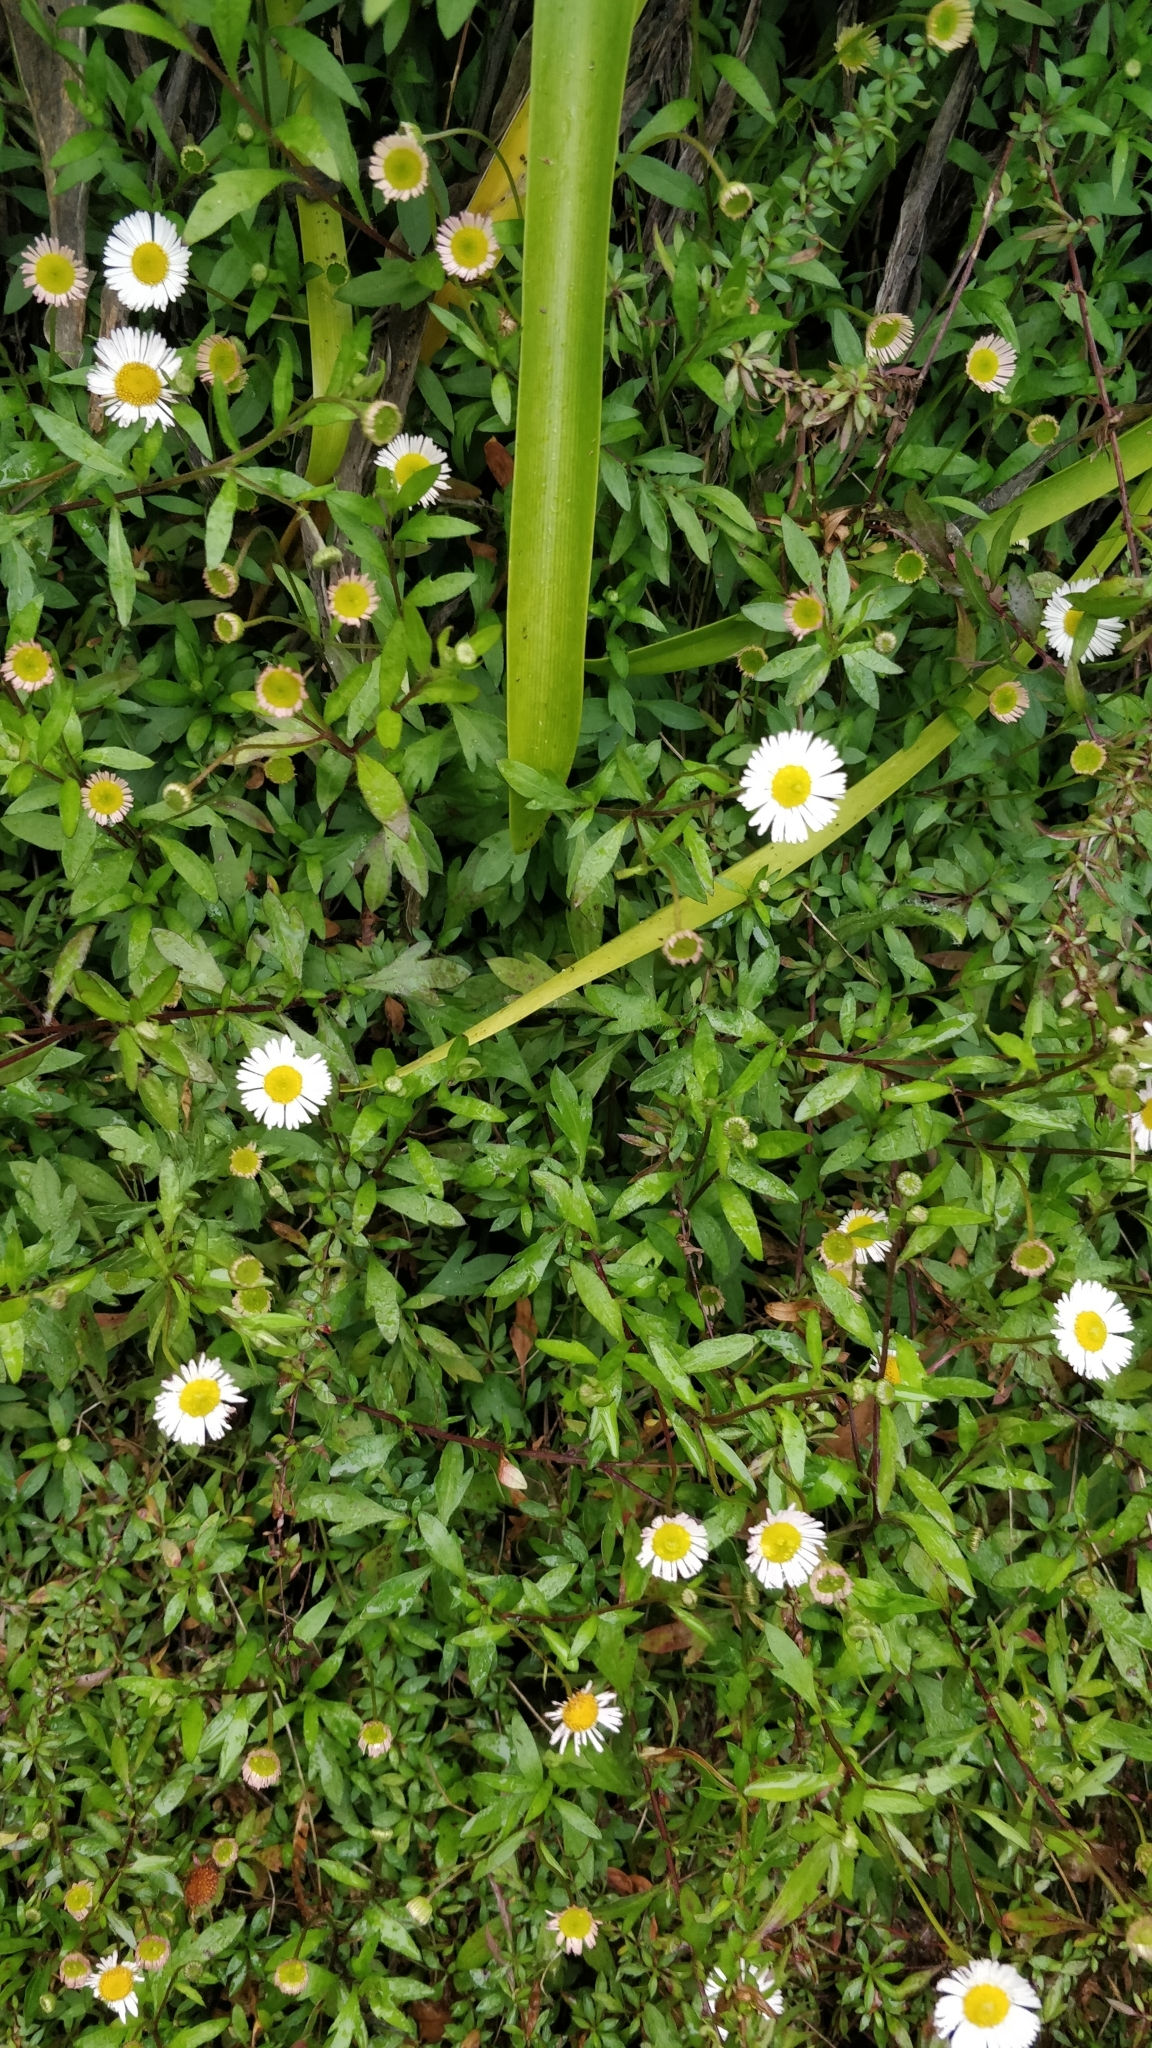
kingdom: Plantae
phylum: Tracheophyta
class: Magnoliopsida
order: Asterales
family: Asteraceae
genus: Erigeron
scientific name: Erigeron karvinskianus
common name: Mexican fleabane
